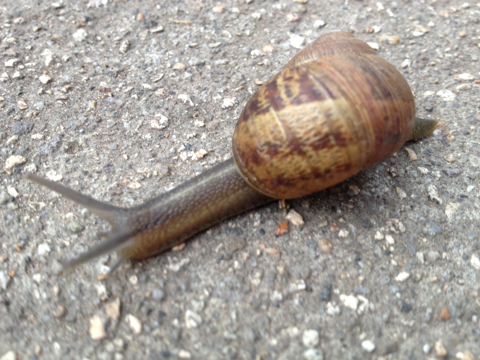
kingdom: Animalia
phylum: Mollusca
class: Gastropoda
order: Stylommatophora
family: Helicidae
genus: Cornu
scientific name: Cornu aspersum
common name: Brown garden snail
